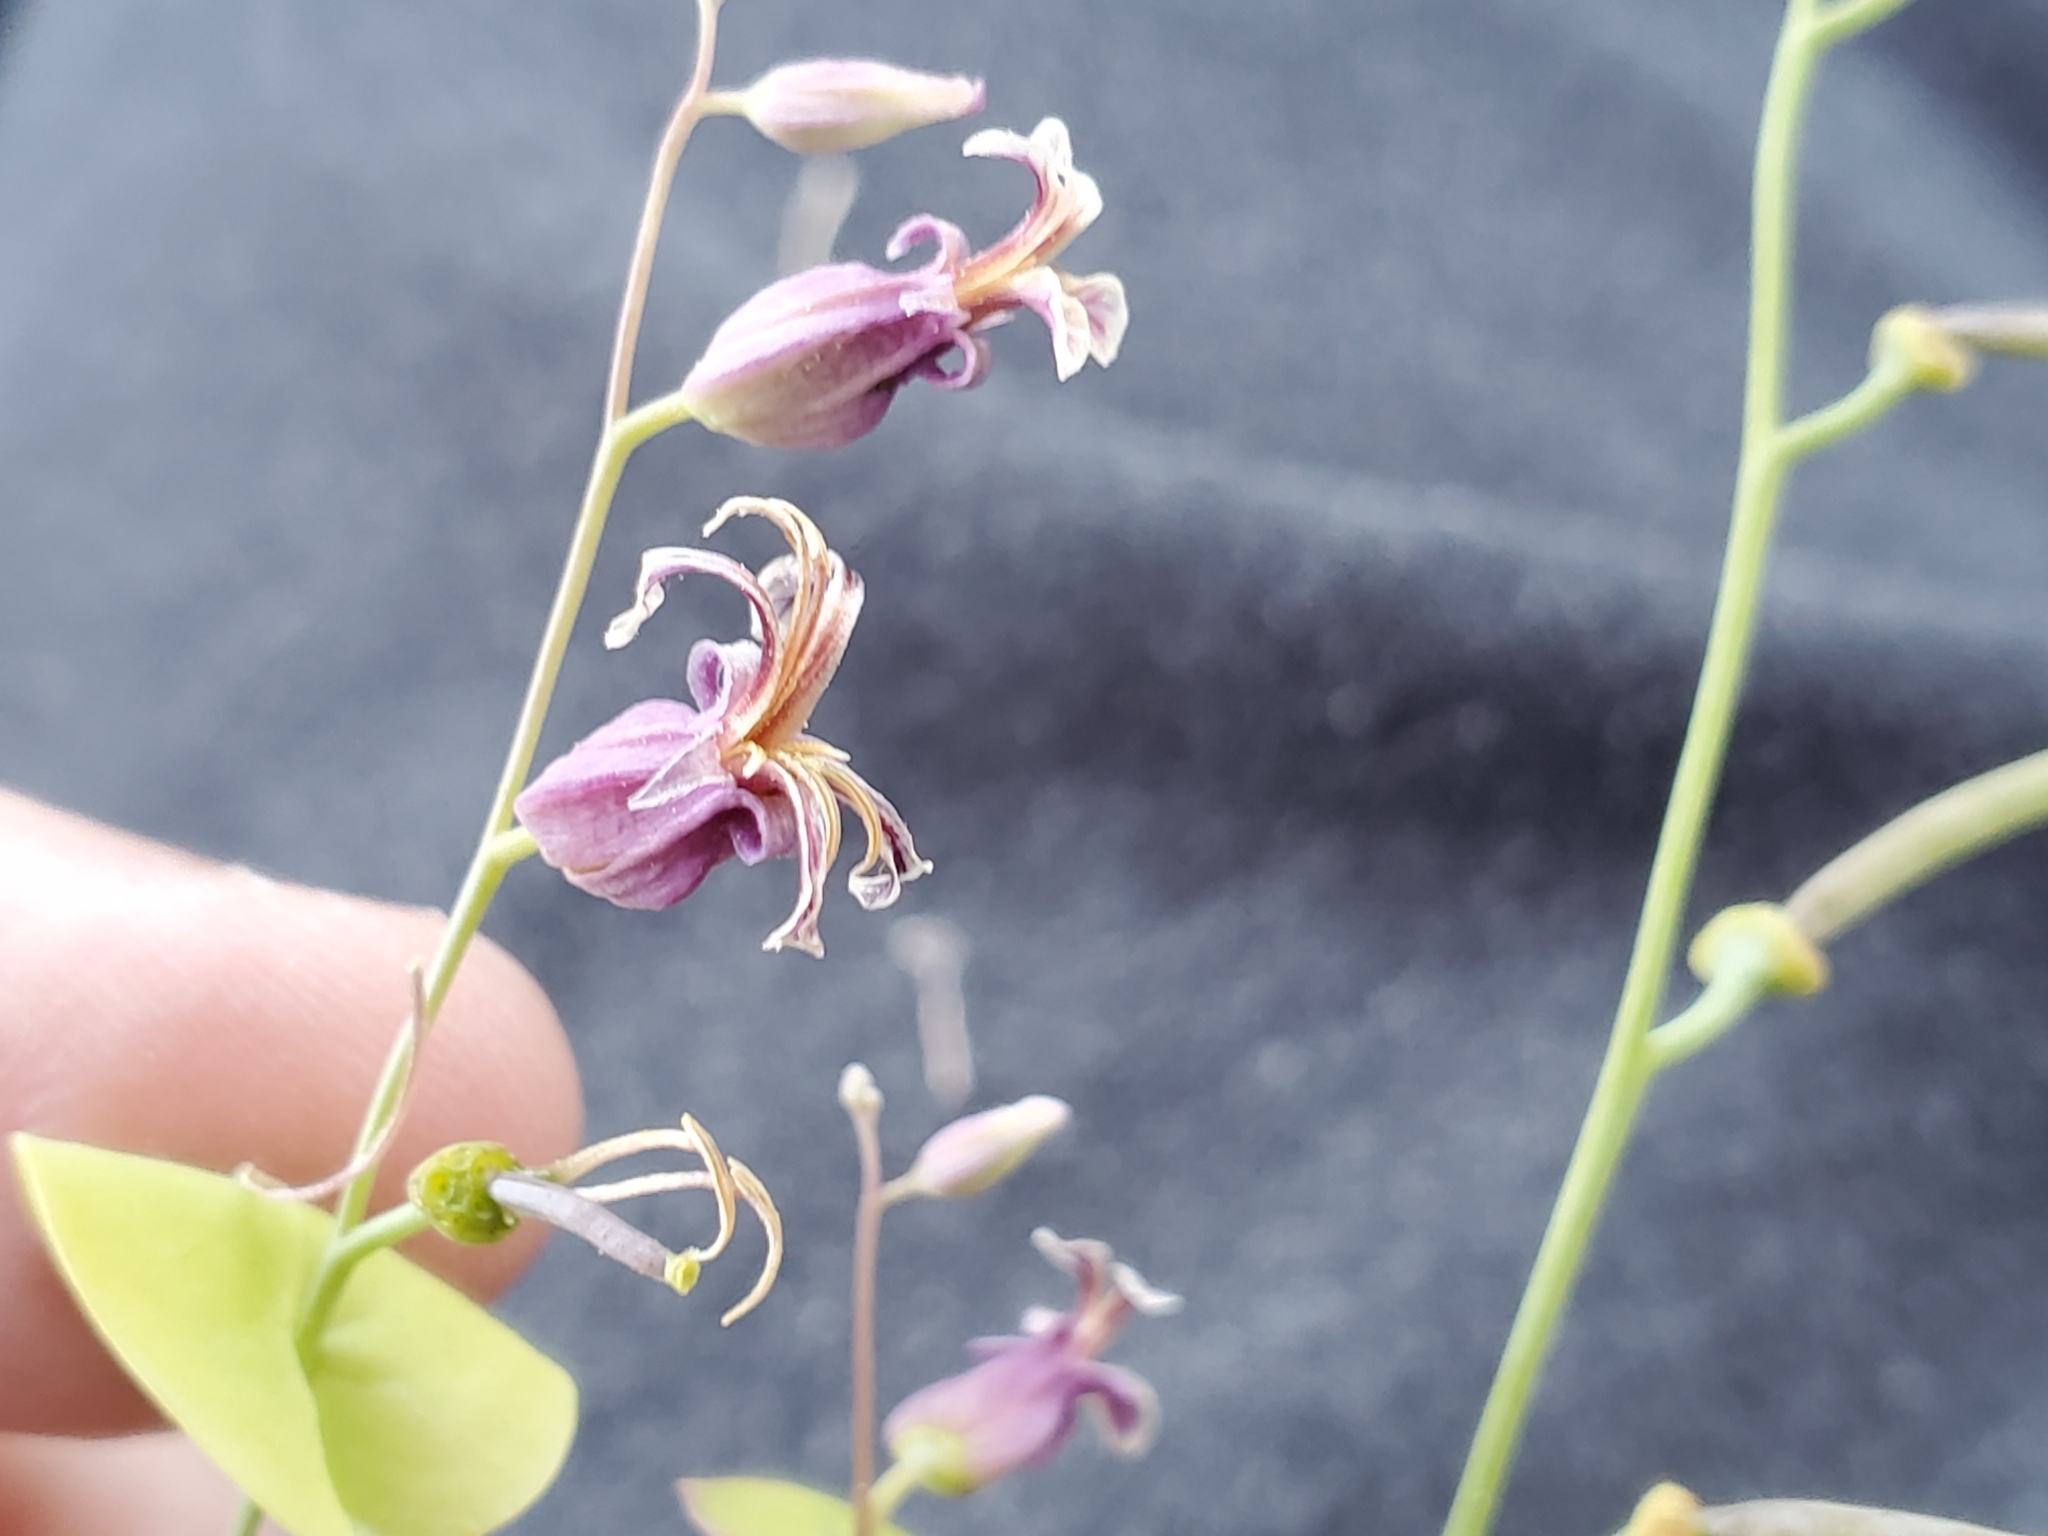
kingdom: Plantae
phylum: Tracheophyta
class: Magnoliopsida
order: Brassicales
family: Brassicaceae
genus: Streptanthus
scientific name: Streptanthus tortuosus
